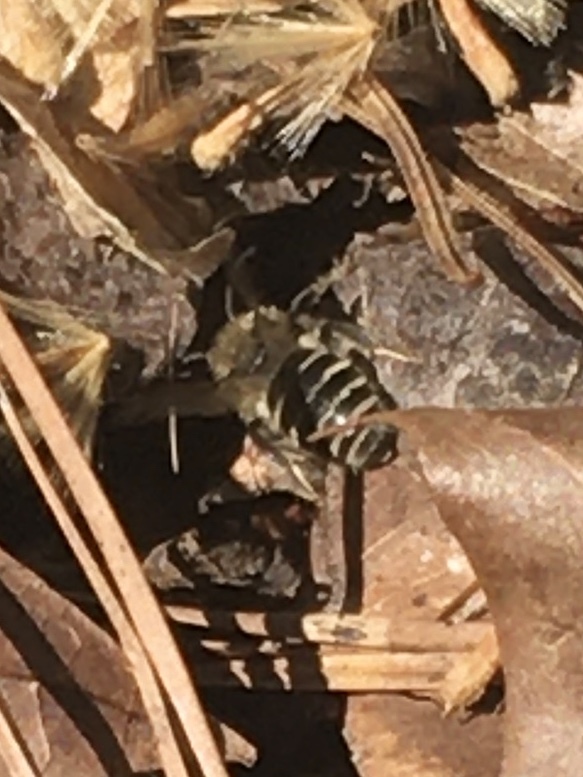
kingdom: Animalia
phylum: Arthropoda
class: Insecta
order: Hymenoptera
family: Colletidae
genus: Colletes
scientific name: Colletes inaequalis
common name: Unequal cellophane bee
